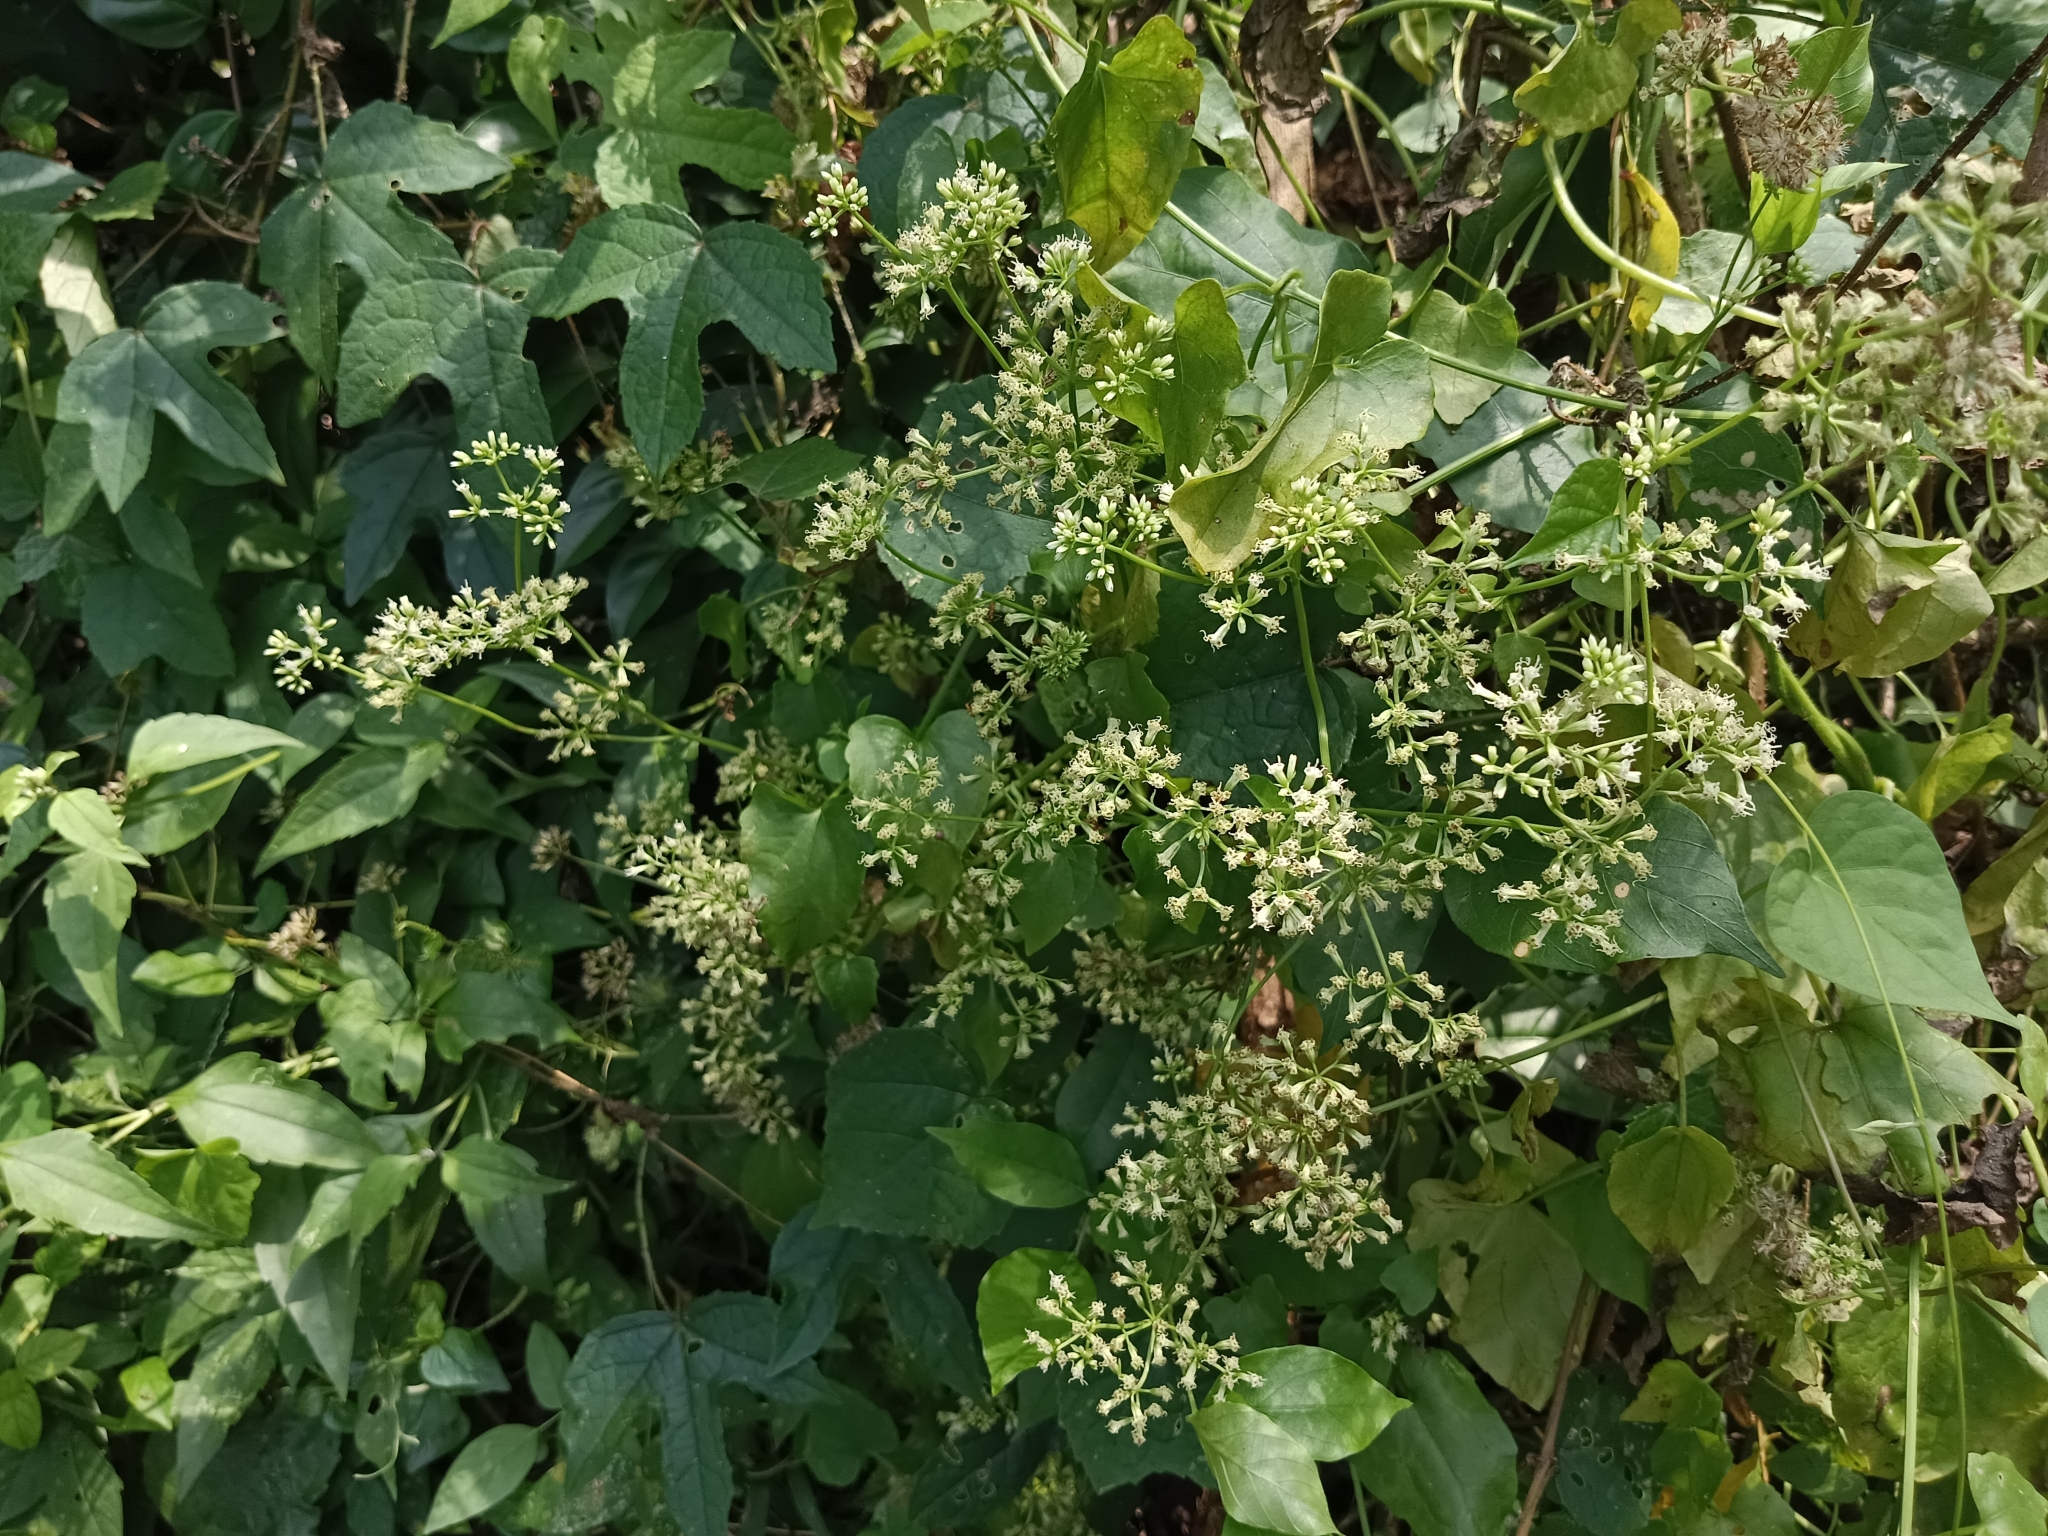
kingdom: Plantae
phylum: Tracheophyta
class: Magnoliopsida
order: Asterales
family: Asteraceae
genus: Mikania
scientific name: Mikania micrantha
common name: Mile-a-minute
